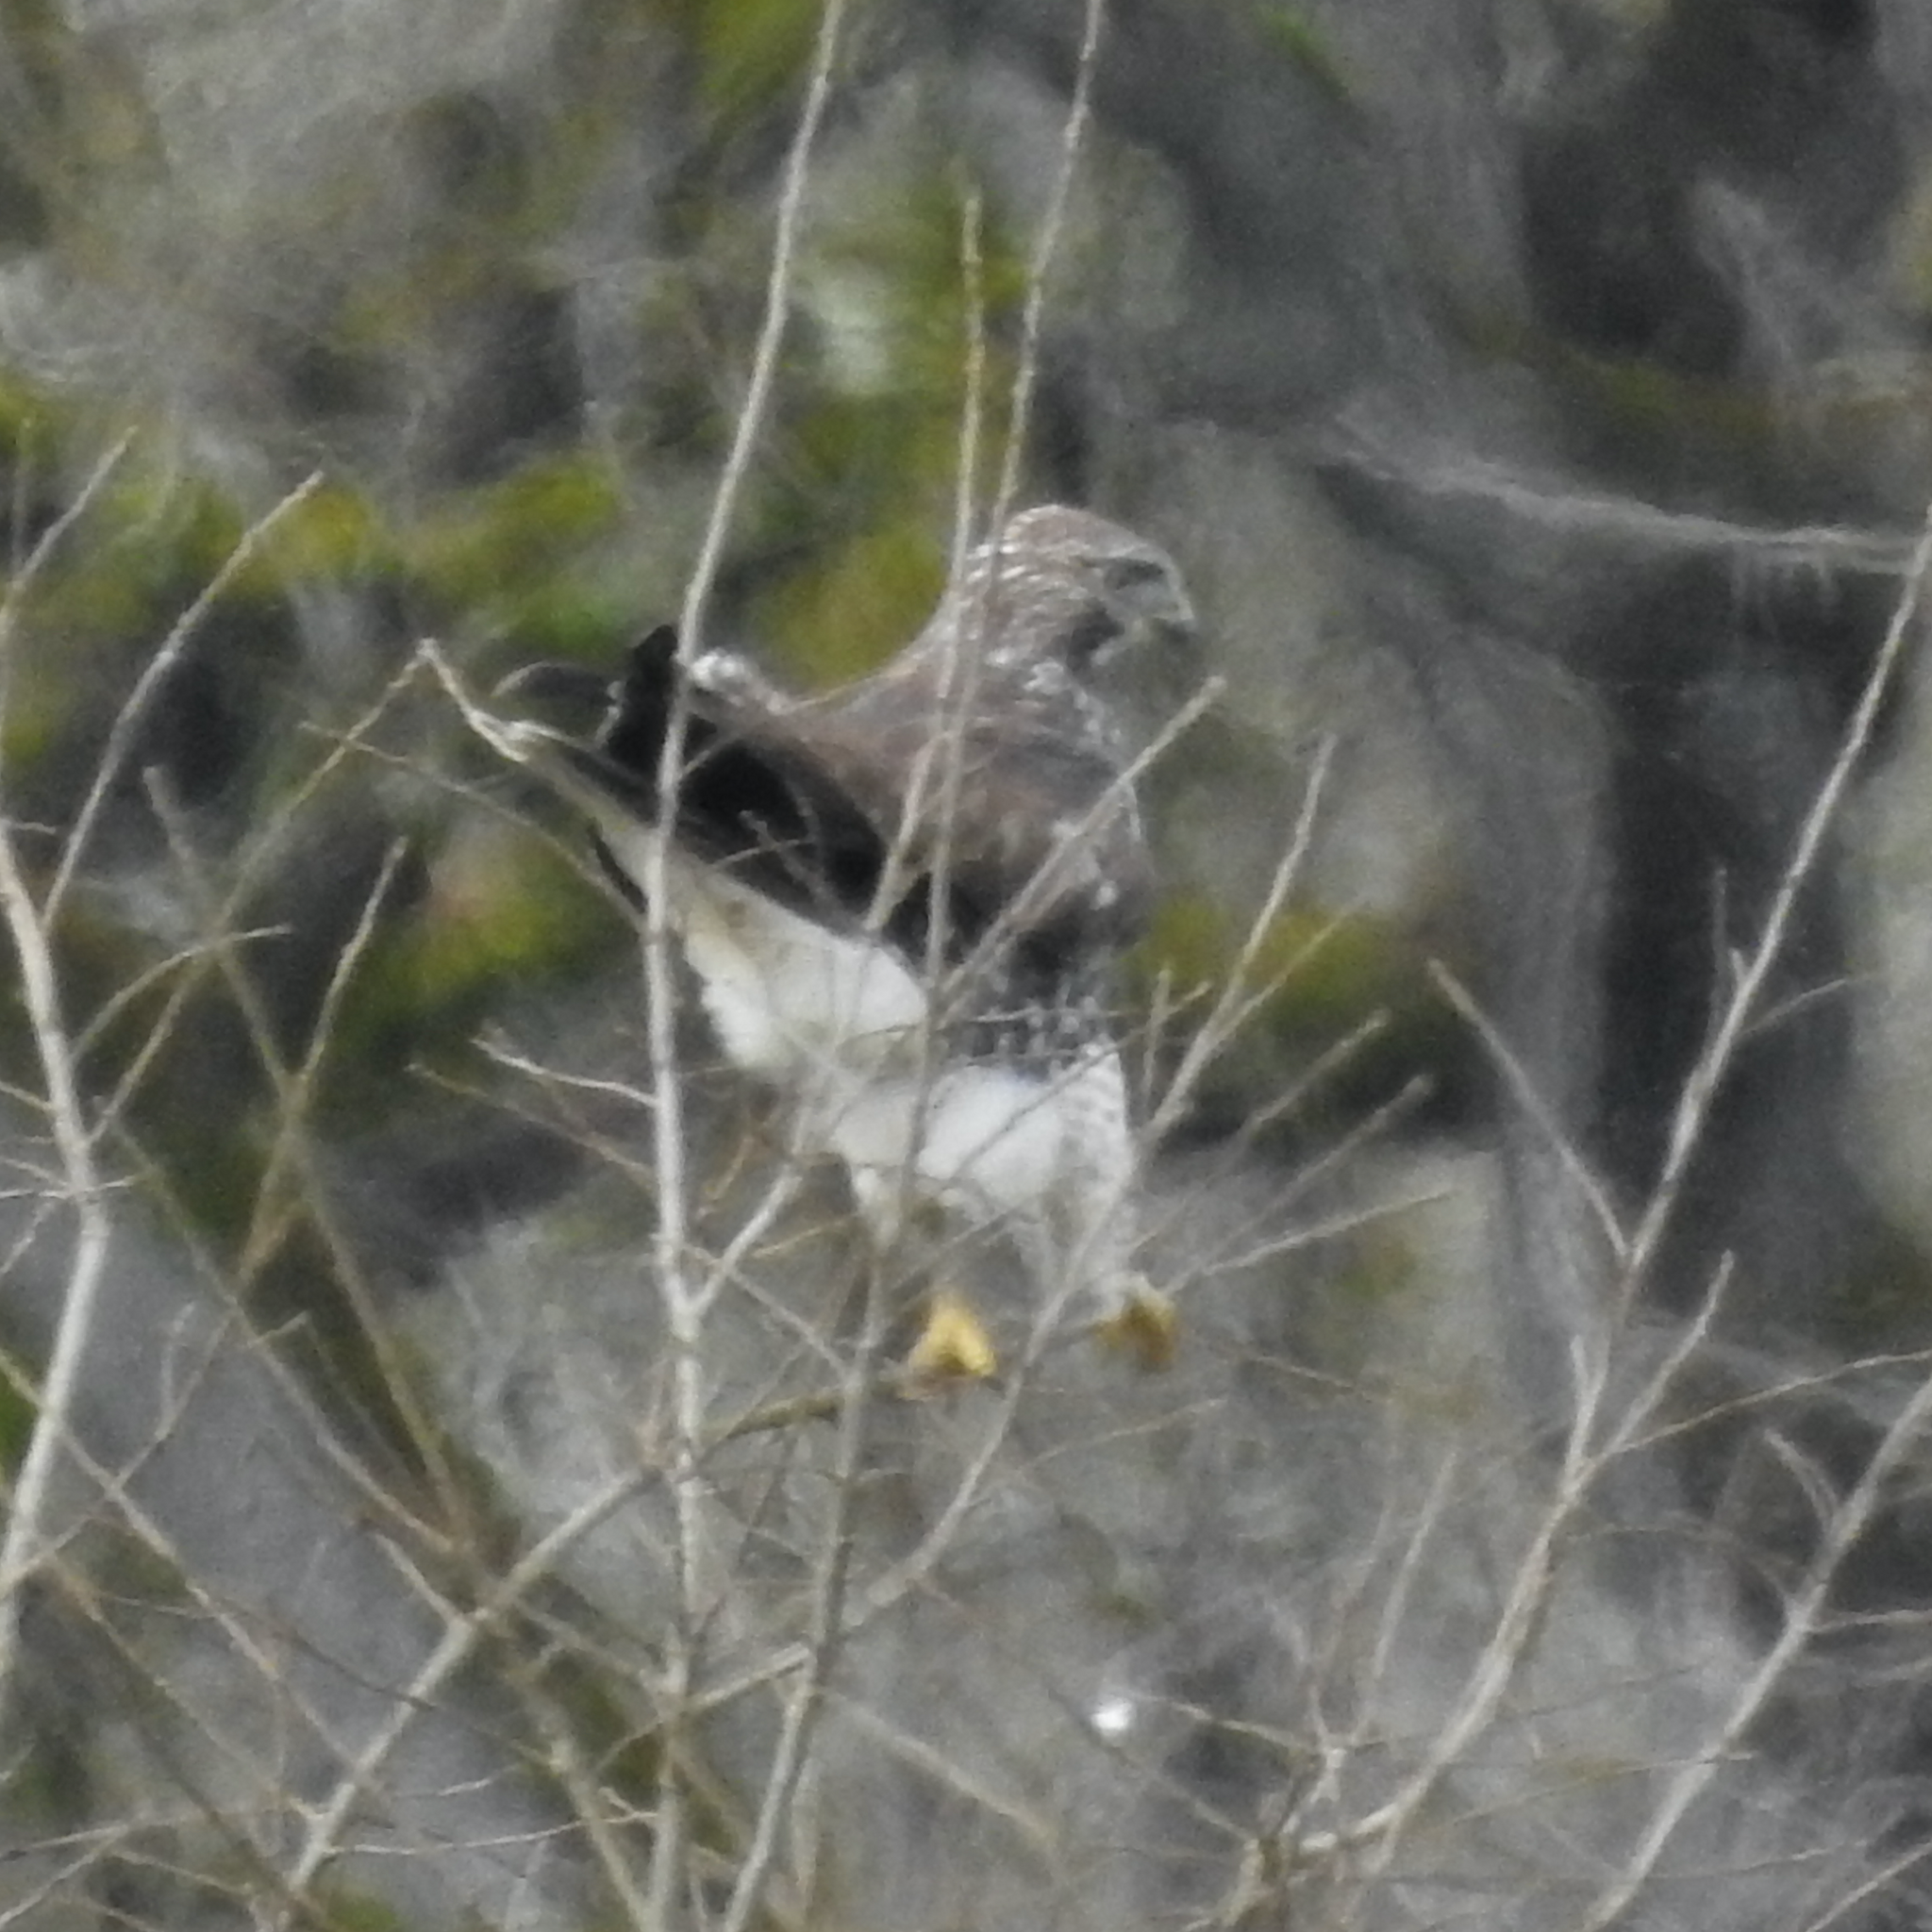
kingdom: Animalia
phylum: Chordata
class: Aves
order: Accipitriformes
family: Accipitridae
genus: Buteo
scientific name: Buteo jamaicensis
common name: Red-tailed hawk
